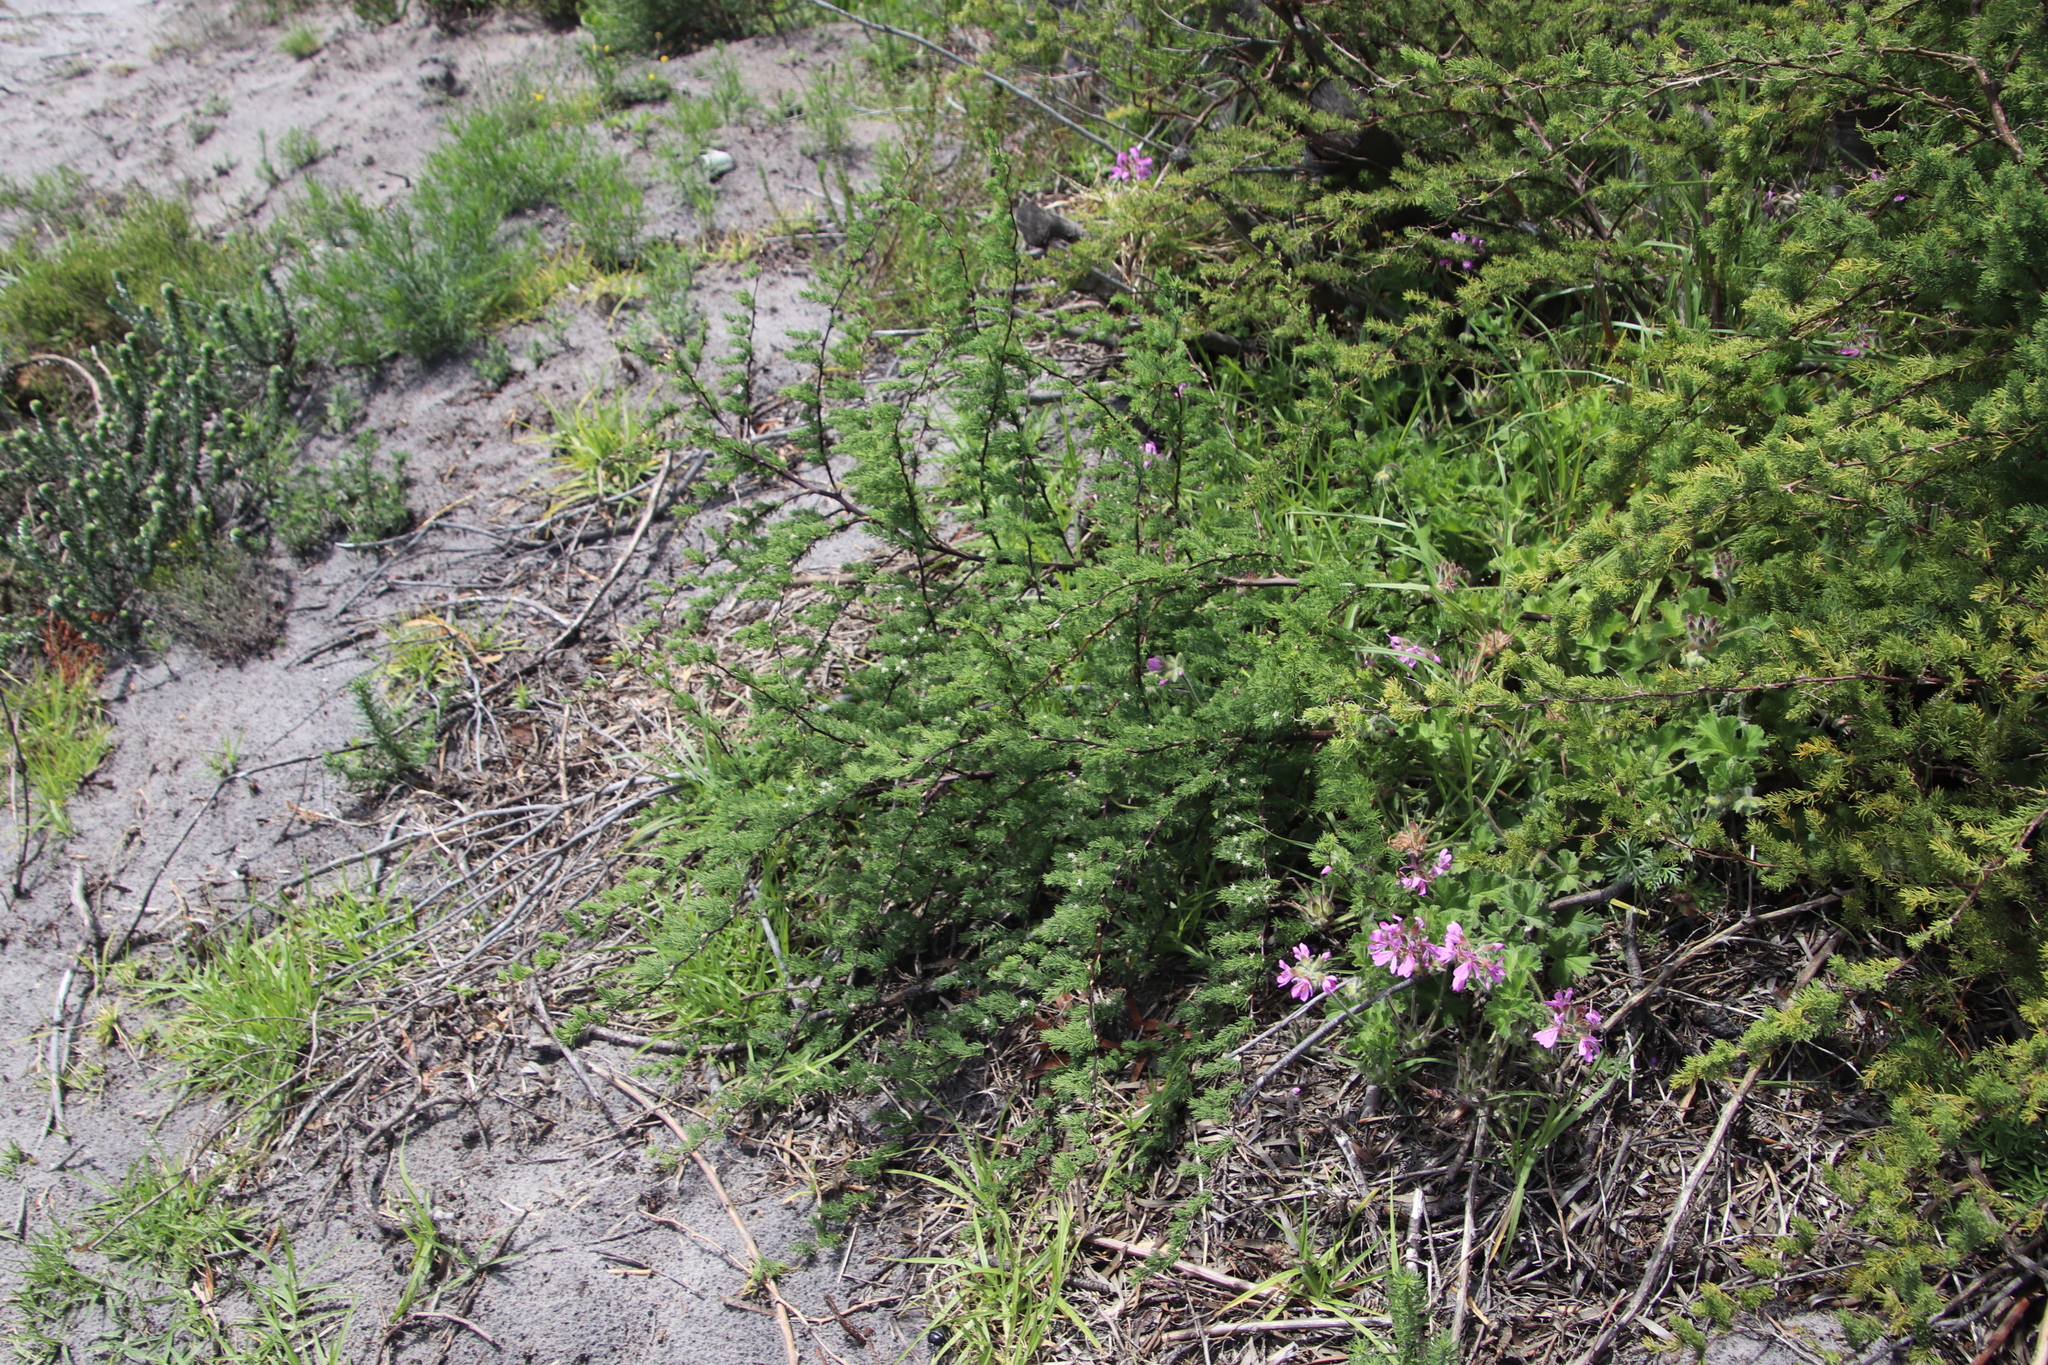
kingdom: Plantae
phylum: Tracheophyta
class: Liliopsida
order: Asparagales
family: Asparagaceae
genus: Asparagus
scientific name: Asparagus rubicundus
